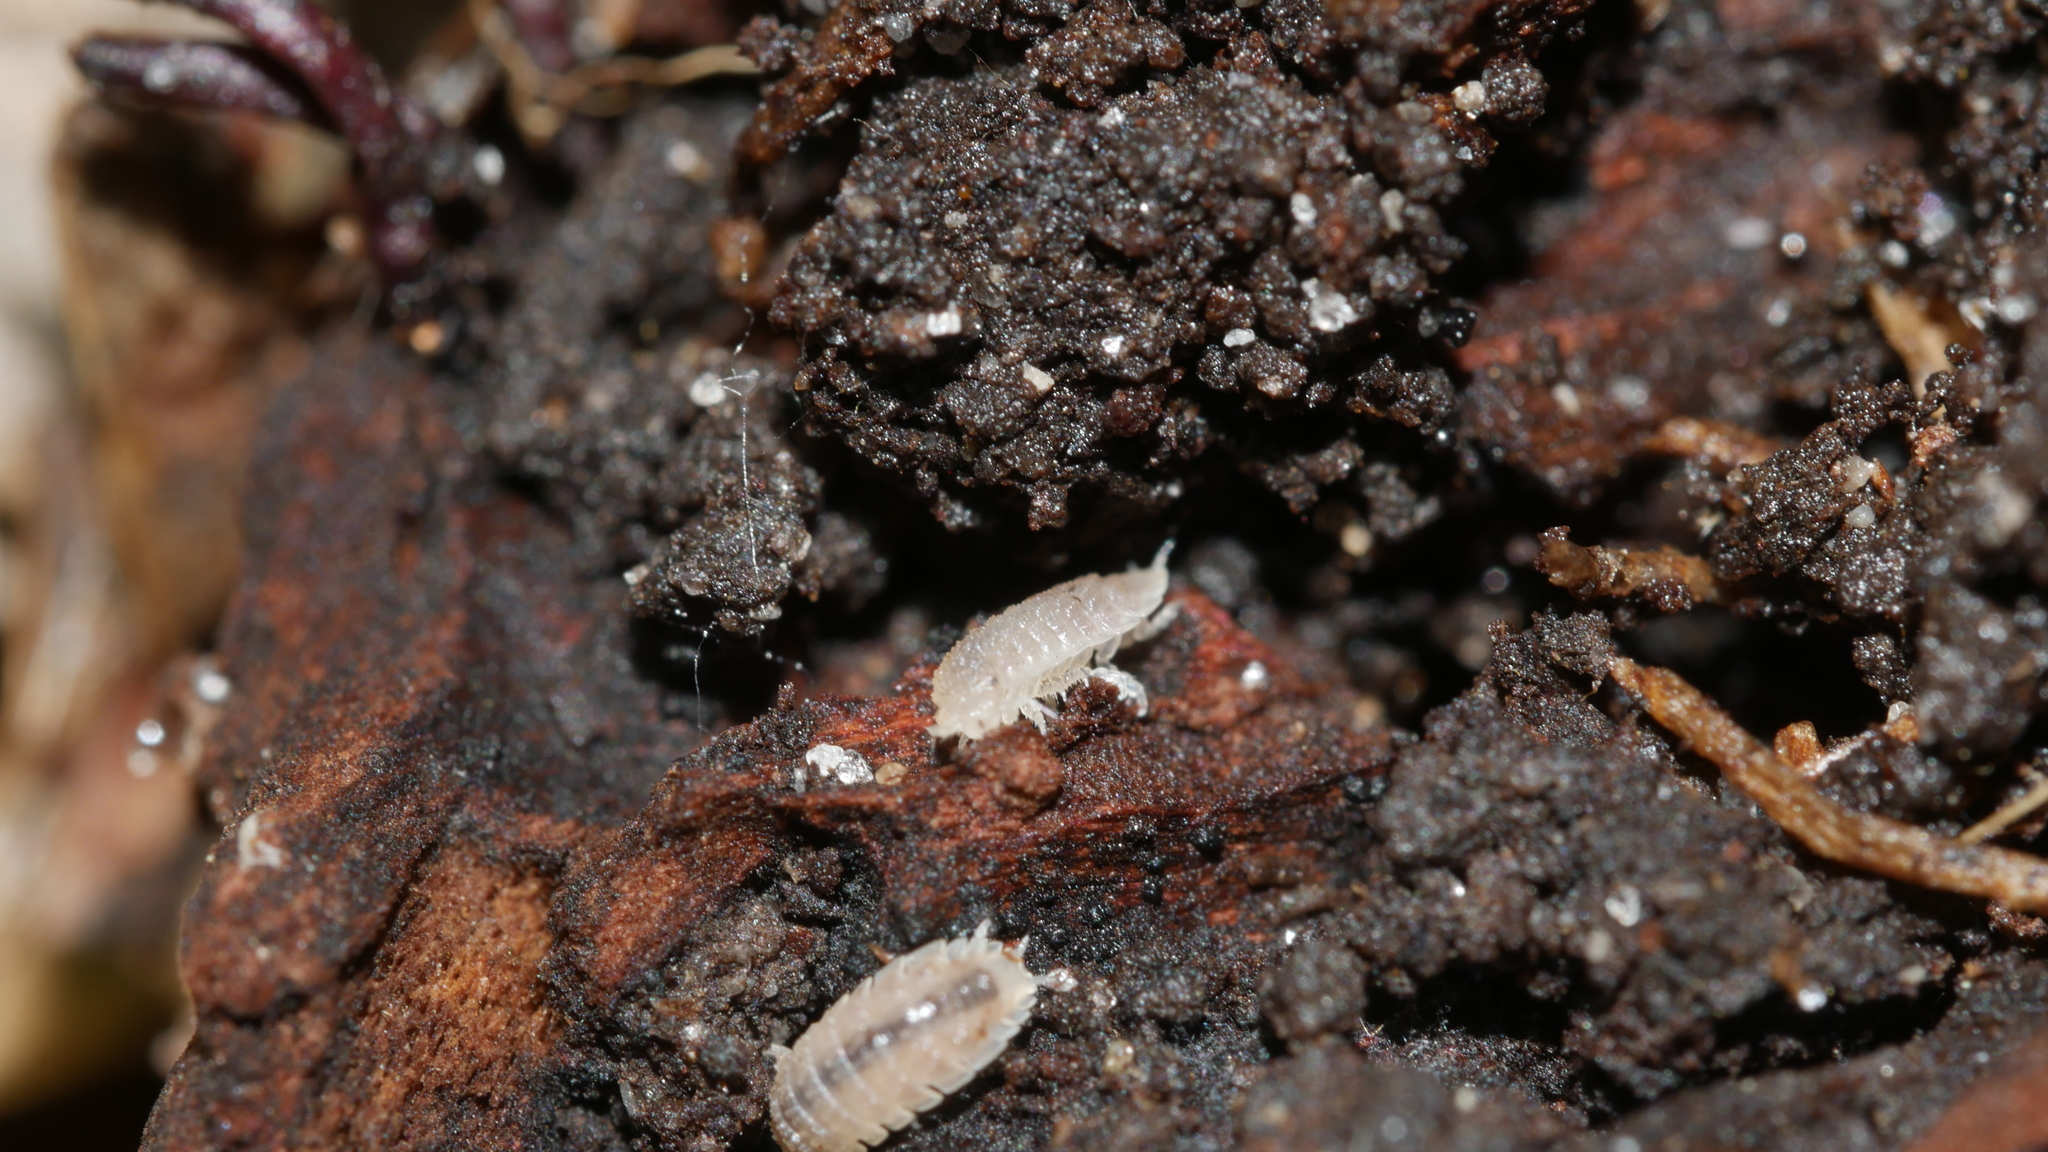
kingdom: Animalia
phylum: Arthropoda
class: Malacostraca
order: Isopoda
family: Trichoniscidae
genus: Haplophthalmus
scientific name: Haplophthalmus danicus
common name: Pillbug
